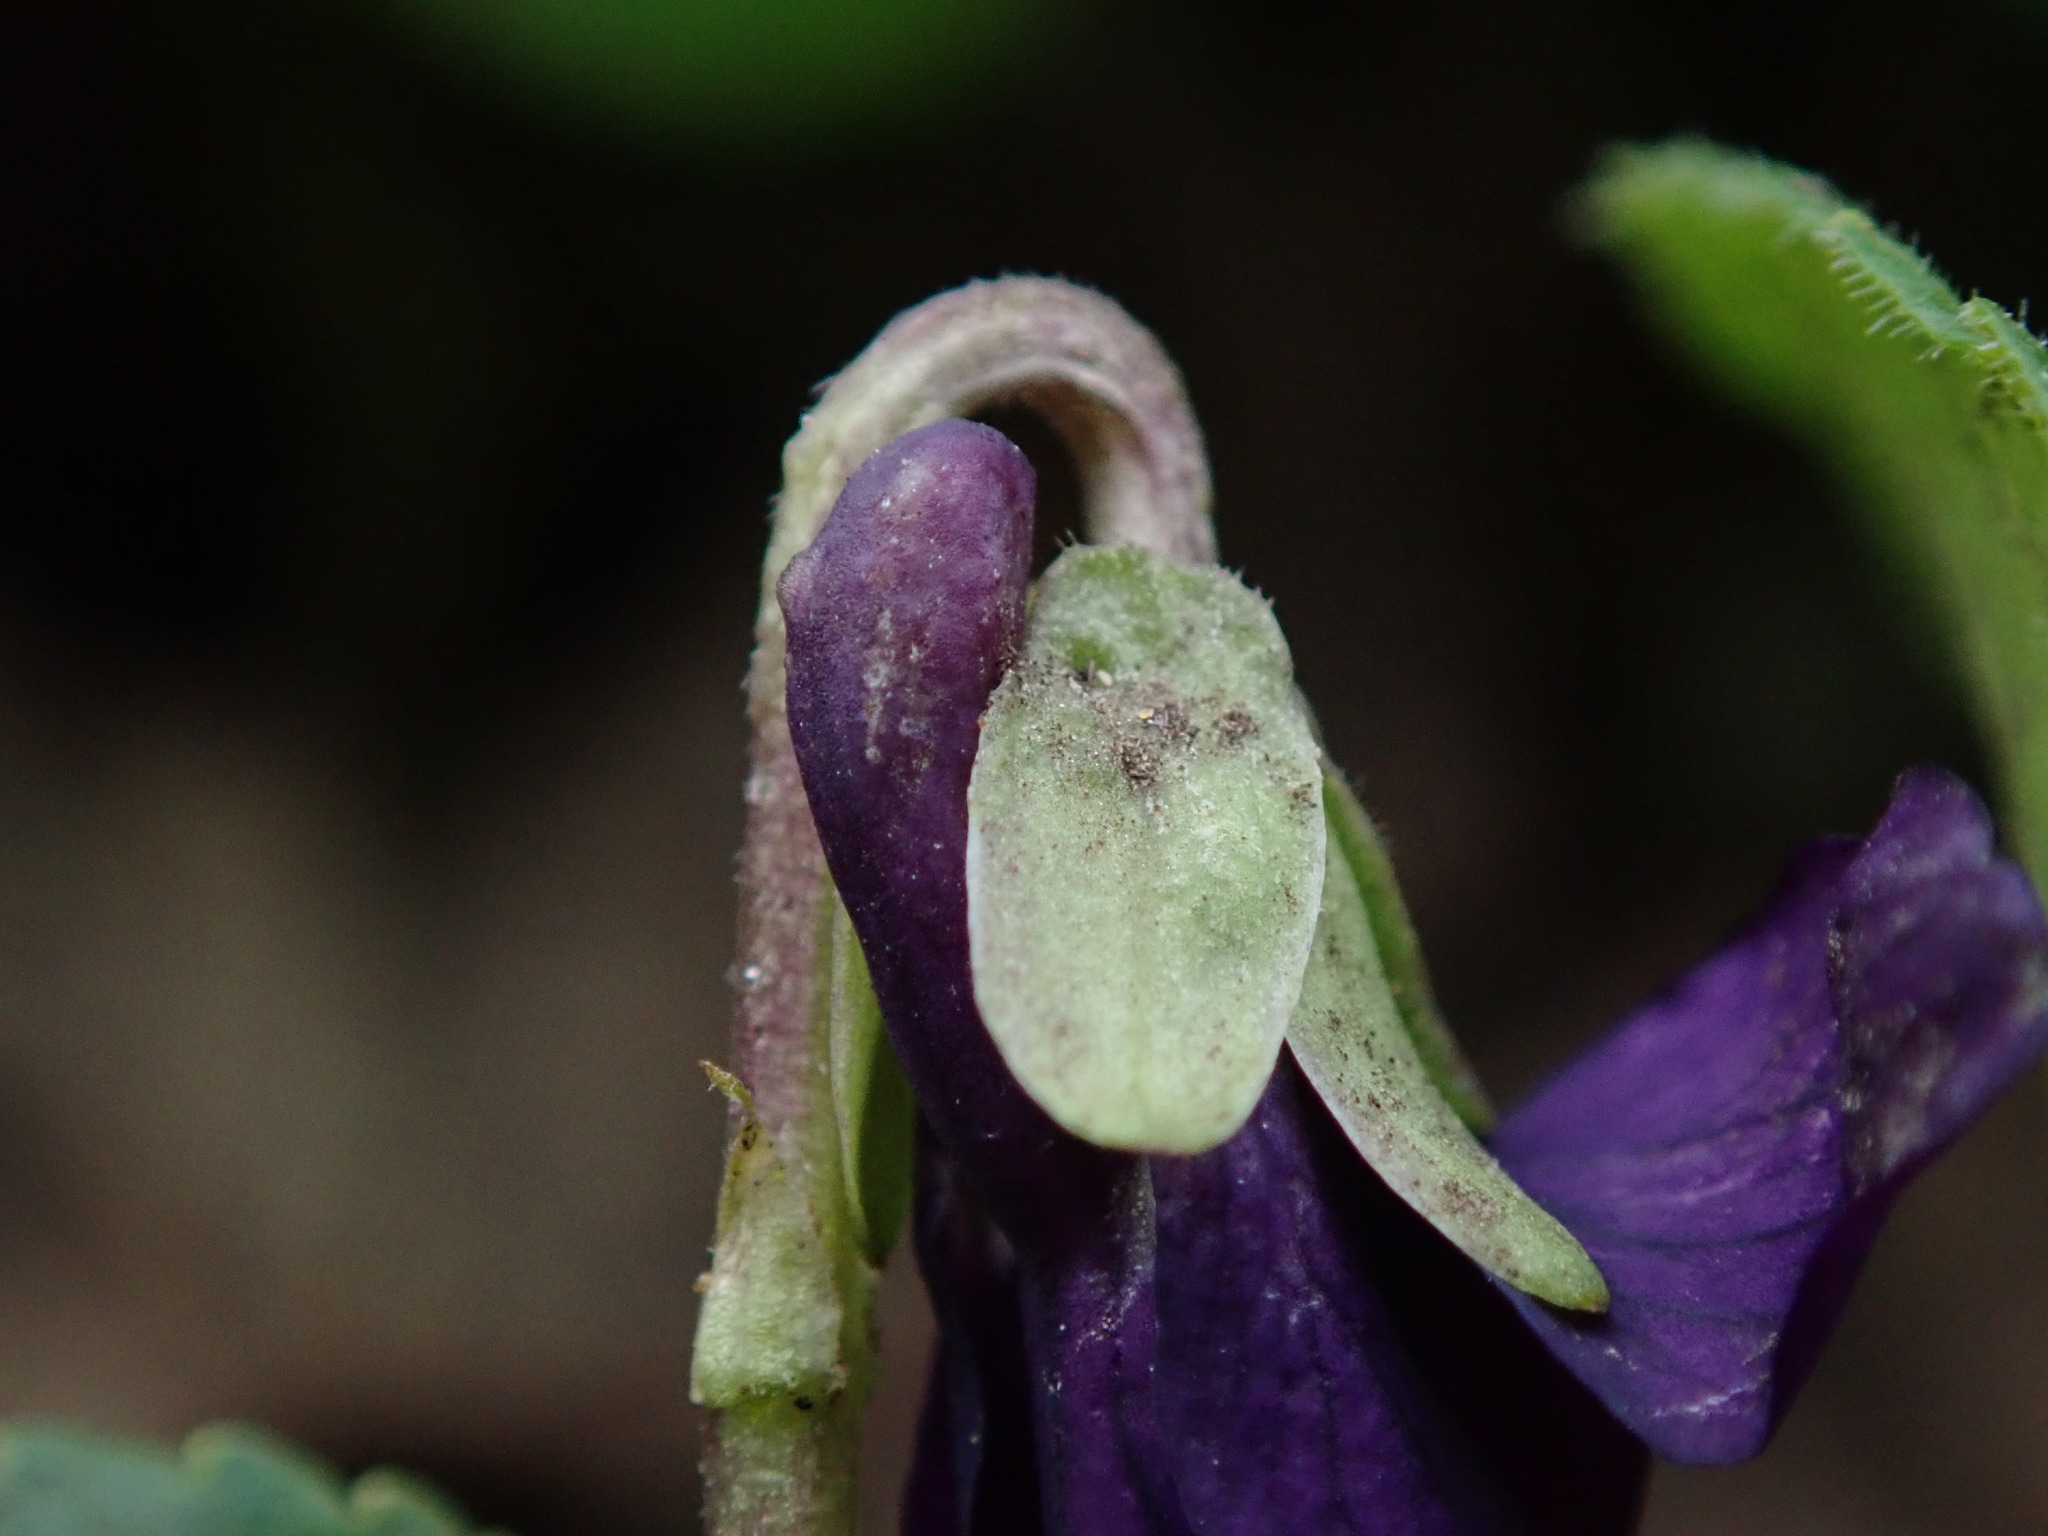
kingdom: Plantae
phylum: Tracheophyta
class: Magnoliopsida
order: Malpighiales
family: Violaceae
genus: Viola
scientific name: Viola odorata
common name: Sweet violet
